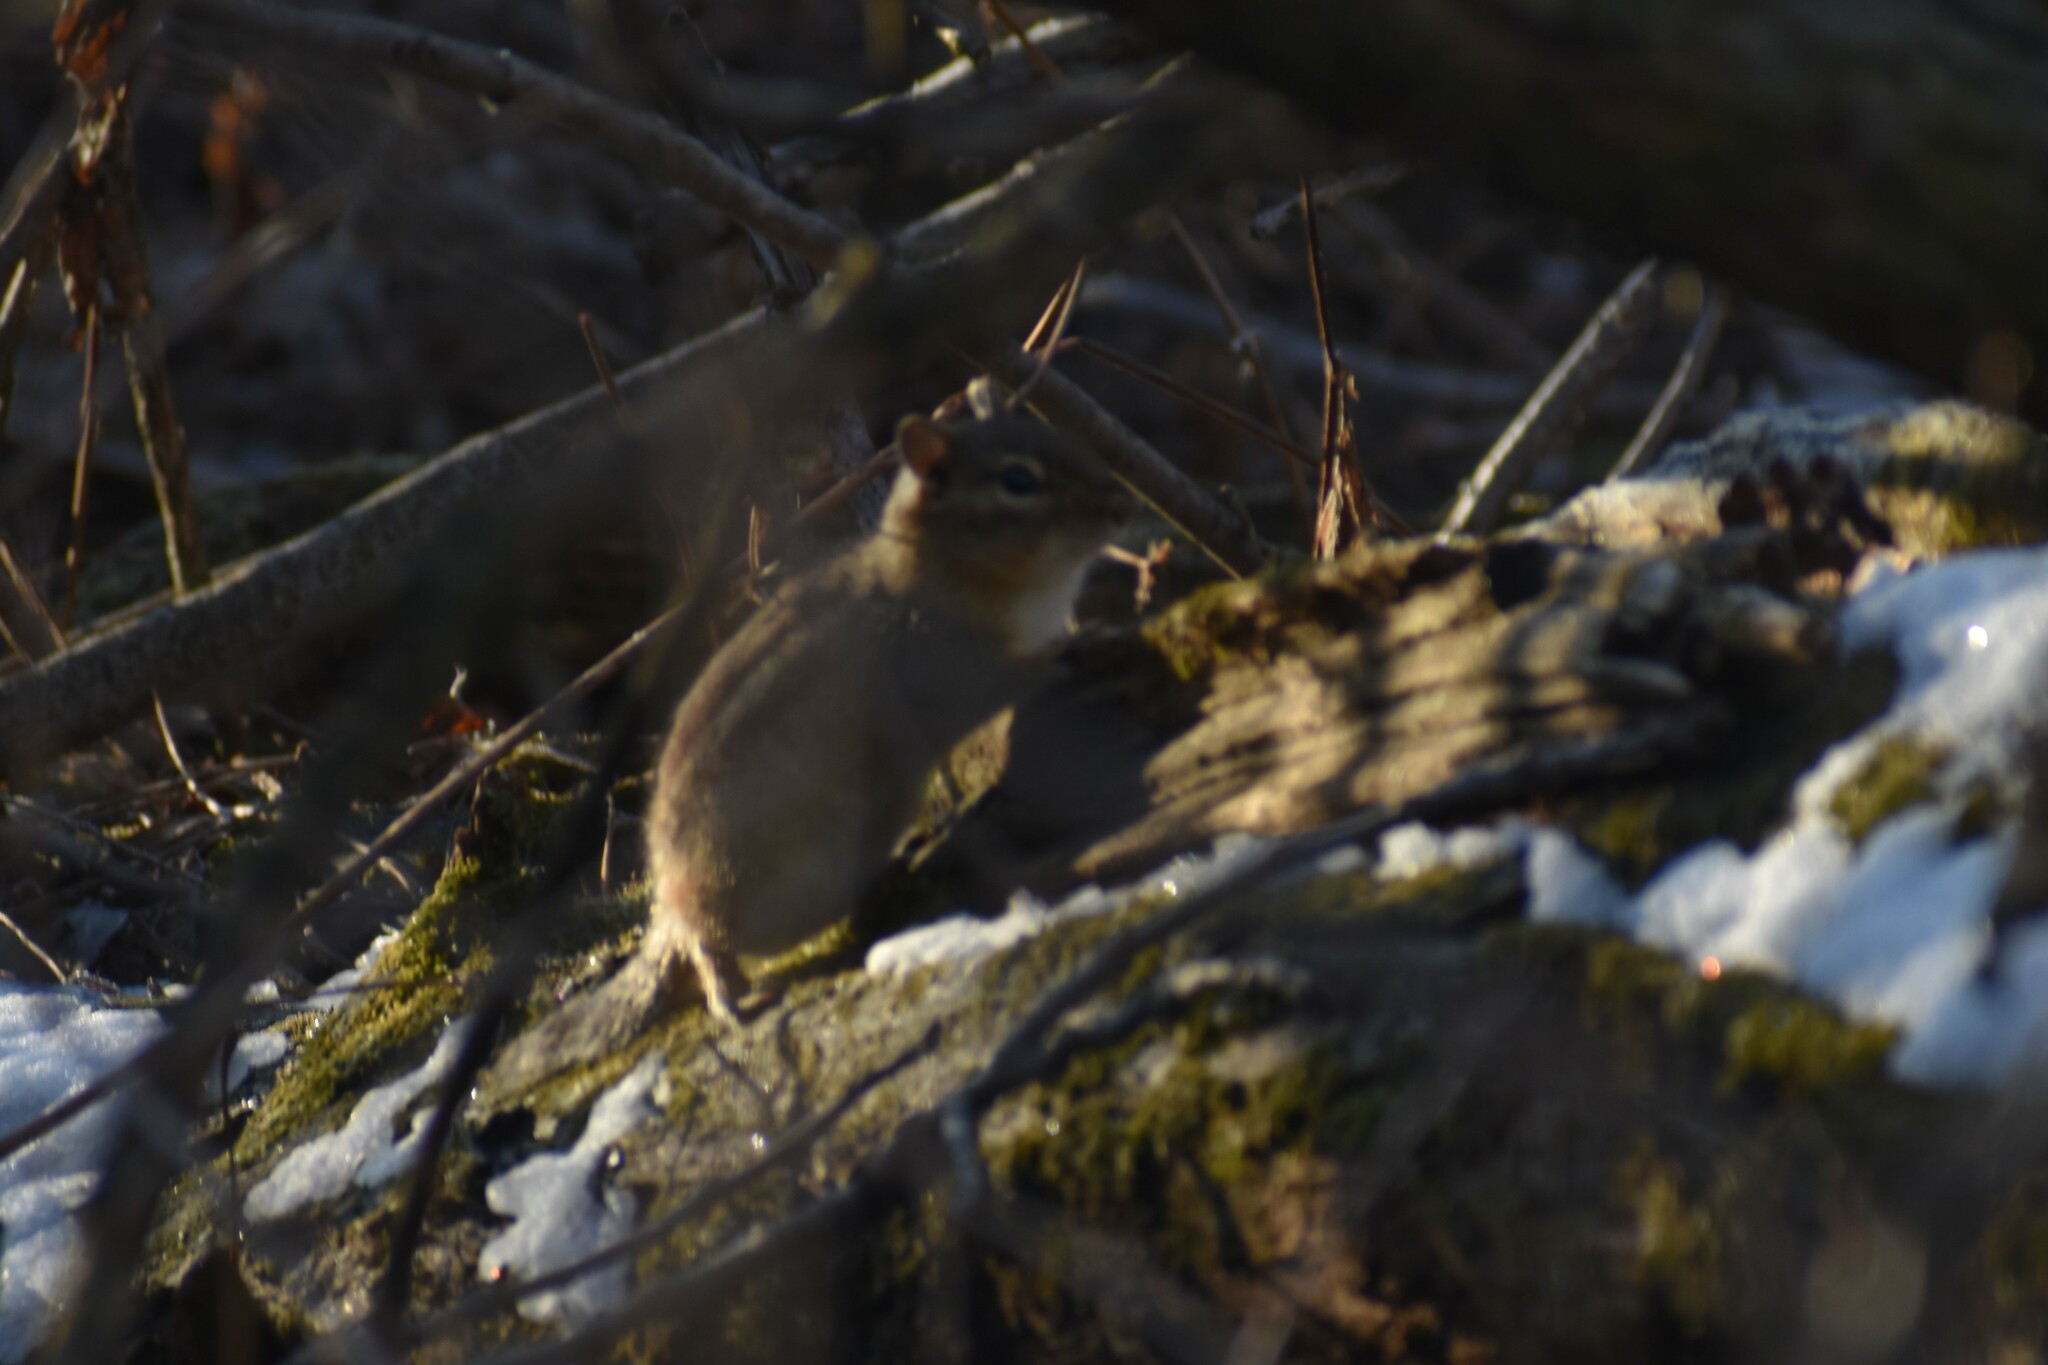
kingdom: Animalia
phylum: Chordata
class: Mammalia
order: Rodentia
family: Sciuridae
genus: Tamias
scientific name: Tamias striatus
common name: Eastern chipmunk
